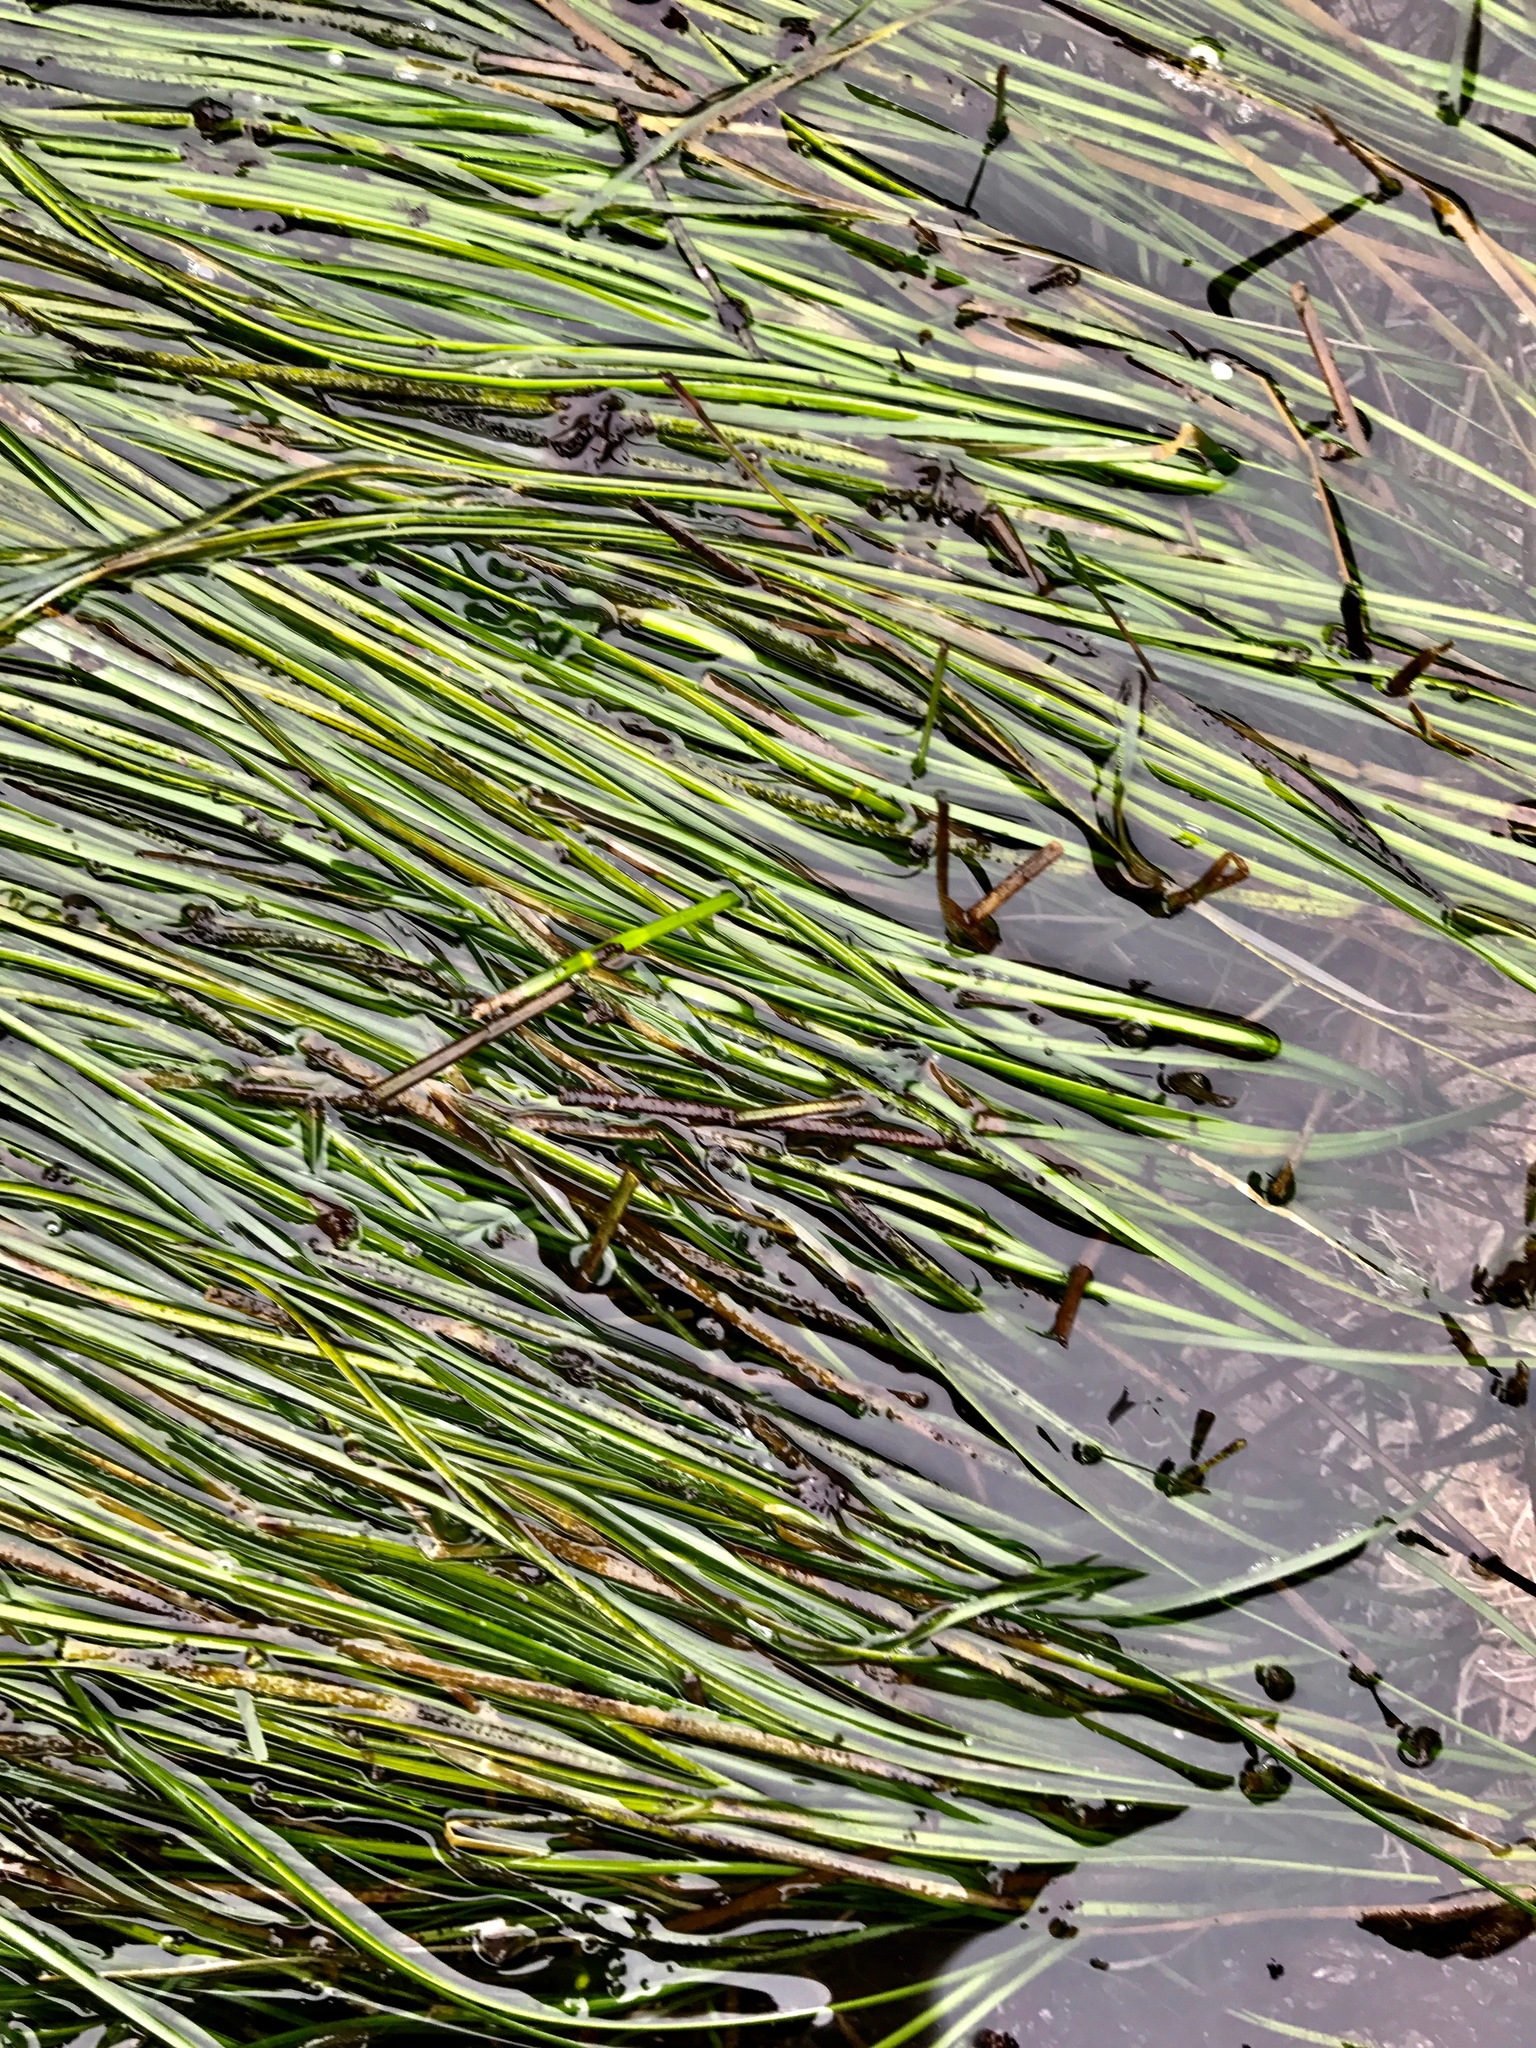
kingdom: Plantae
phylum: Tracheophyta
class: Liliopsida
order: Alismatales
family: Zosteraceae
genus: Phyllospadix
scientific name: Phyllospadix torreyi
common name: Surfgrass
